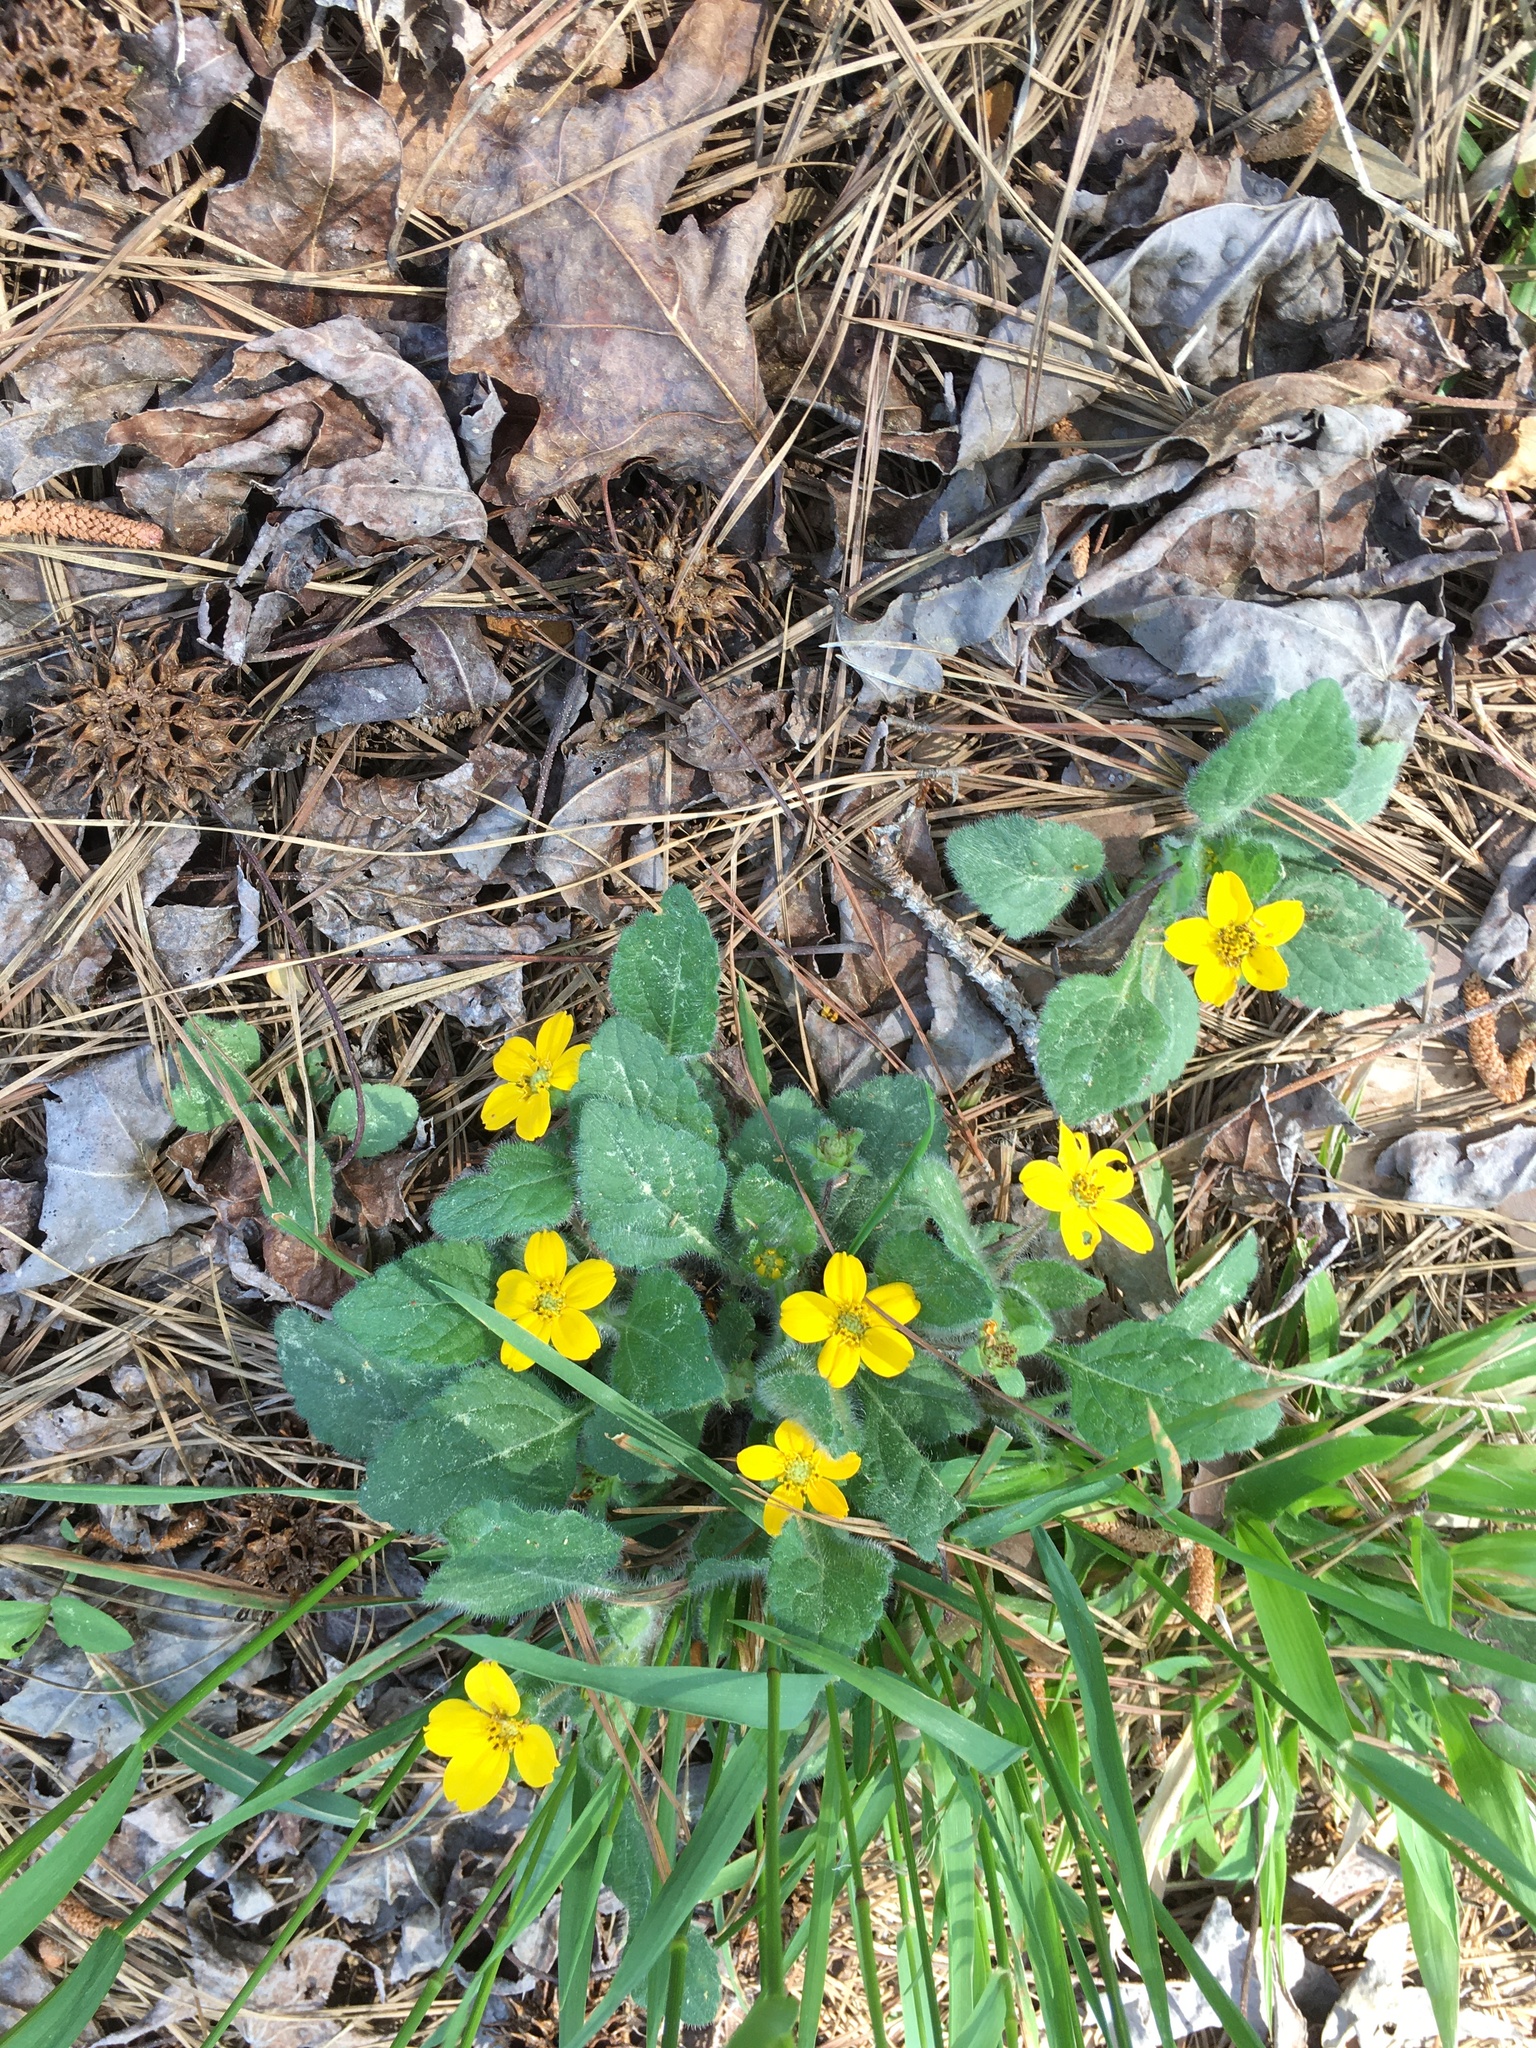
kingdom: Plantae
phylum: Tracheophyta
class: Magnoliopsida
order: Asterales
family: Asteraceae
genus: Chrysogonum
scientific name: Chrysogonum virginianum
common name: Golden-knee
